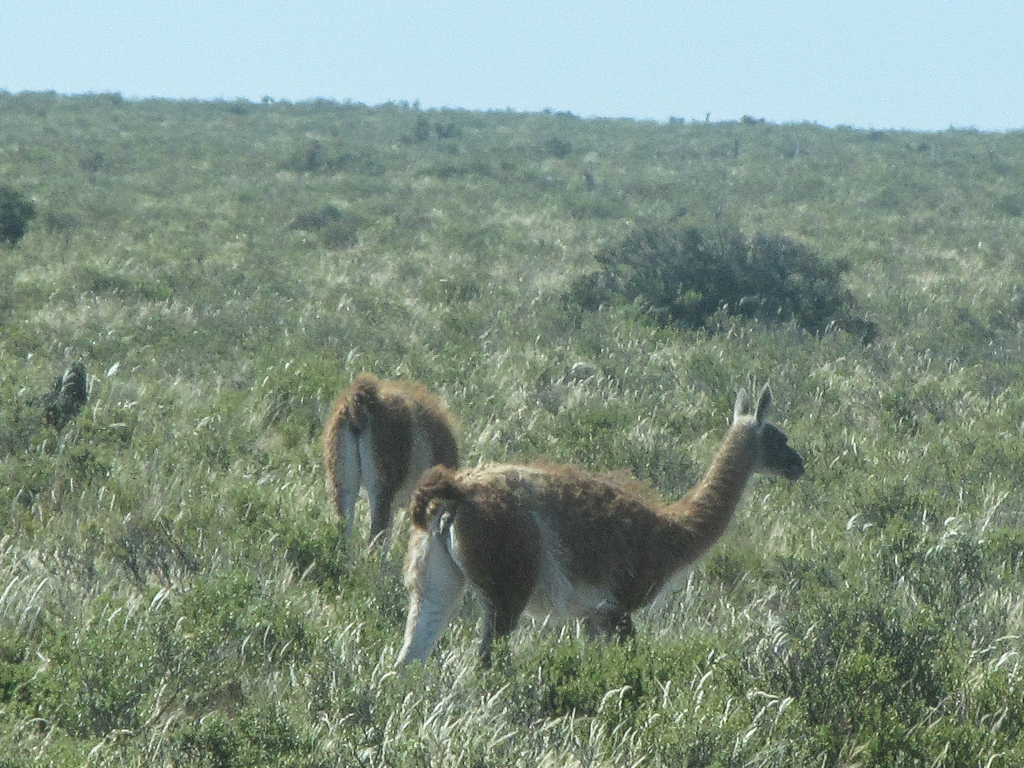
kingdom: Animalia
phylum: Chordata
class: Mammalia
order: Artiodactyla
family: Camelidae
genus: Lama
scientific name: Lama glama
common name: Llama
